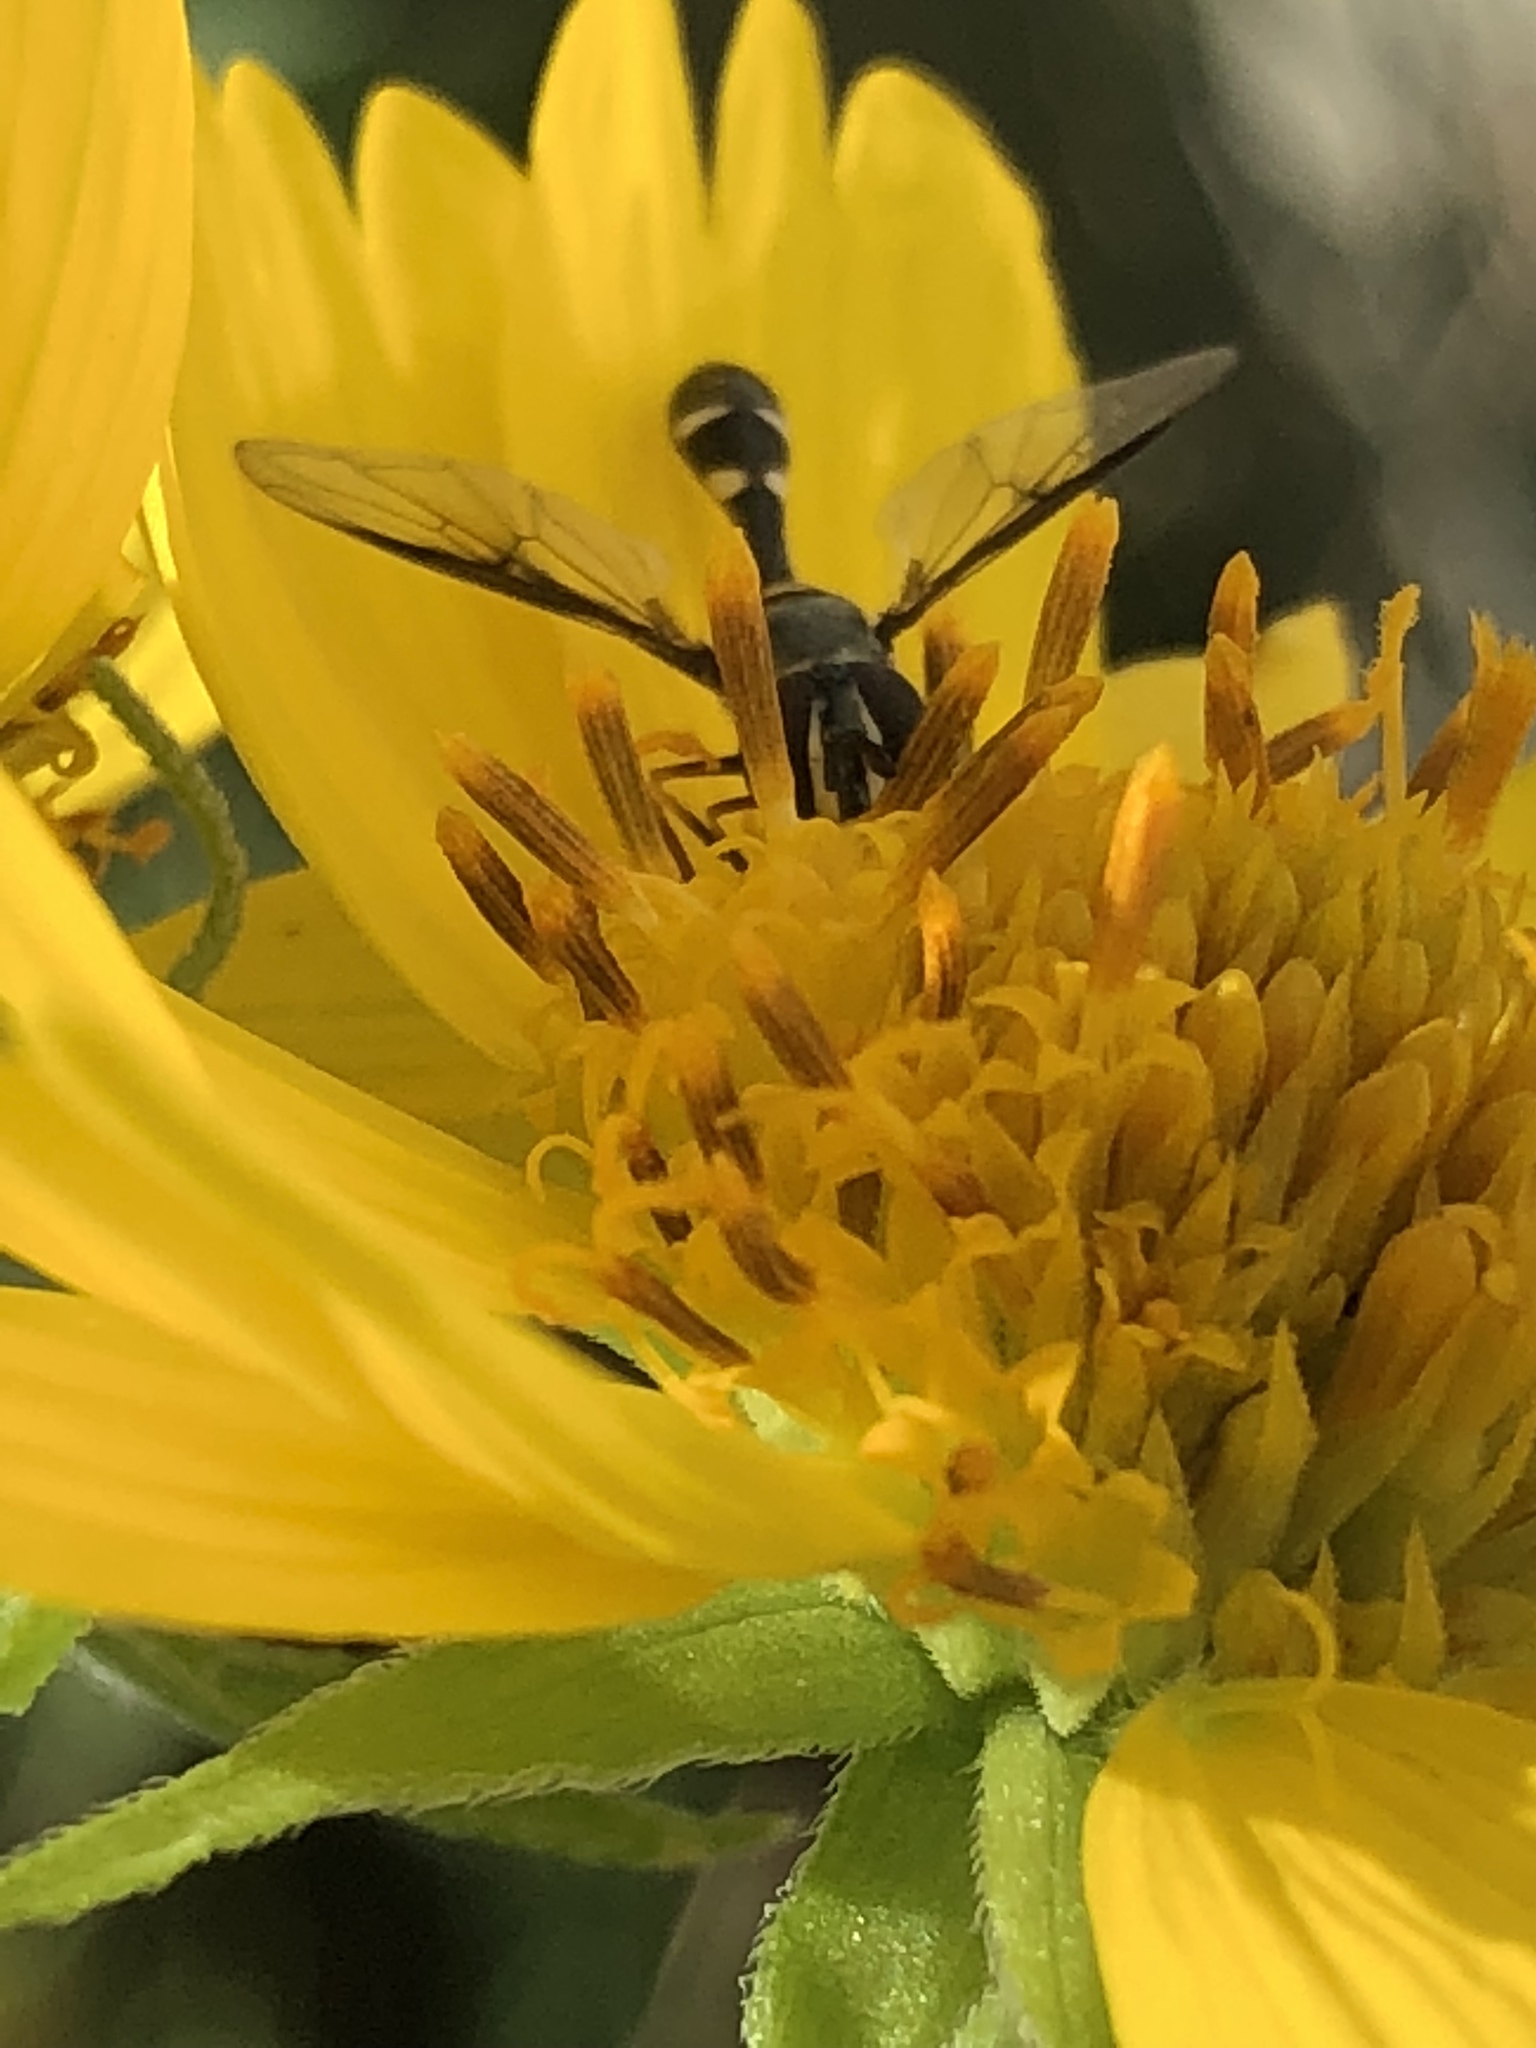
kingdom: Animalia
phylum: Arthropoda
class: Insecta
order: Diptera
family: Syrphidae
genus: Dioprosopa
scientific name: Dioprosopa clavatus
